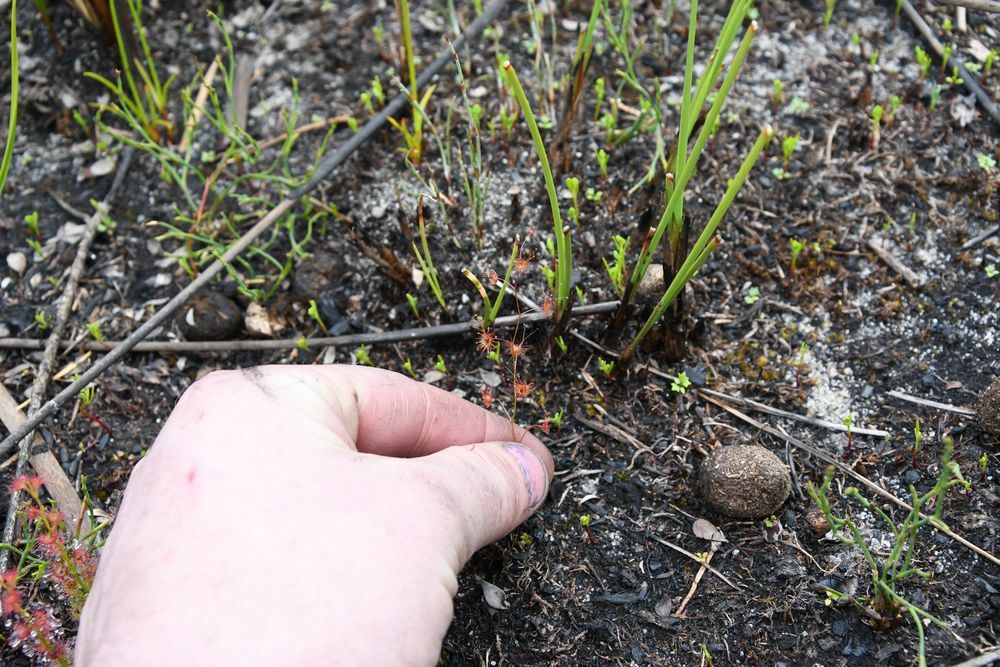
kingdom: Plantae
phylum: Tracheophyta
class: Magnoliopsida
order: Caryophyllales
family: Droseraceae
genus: Drosera
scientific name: Drosera sulphurea
